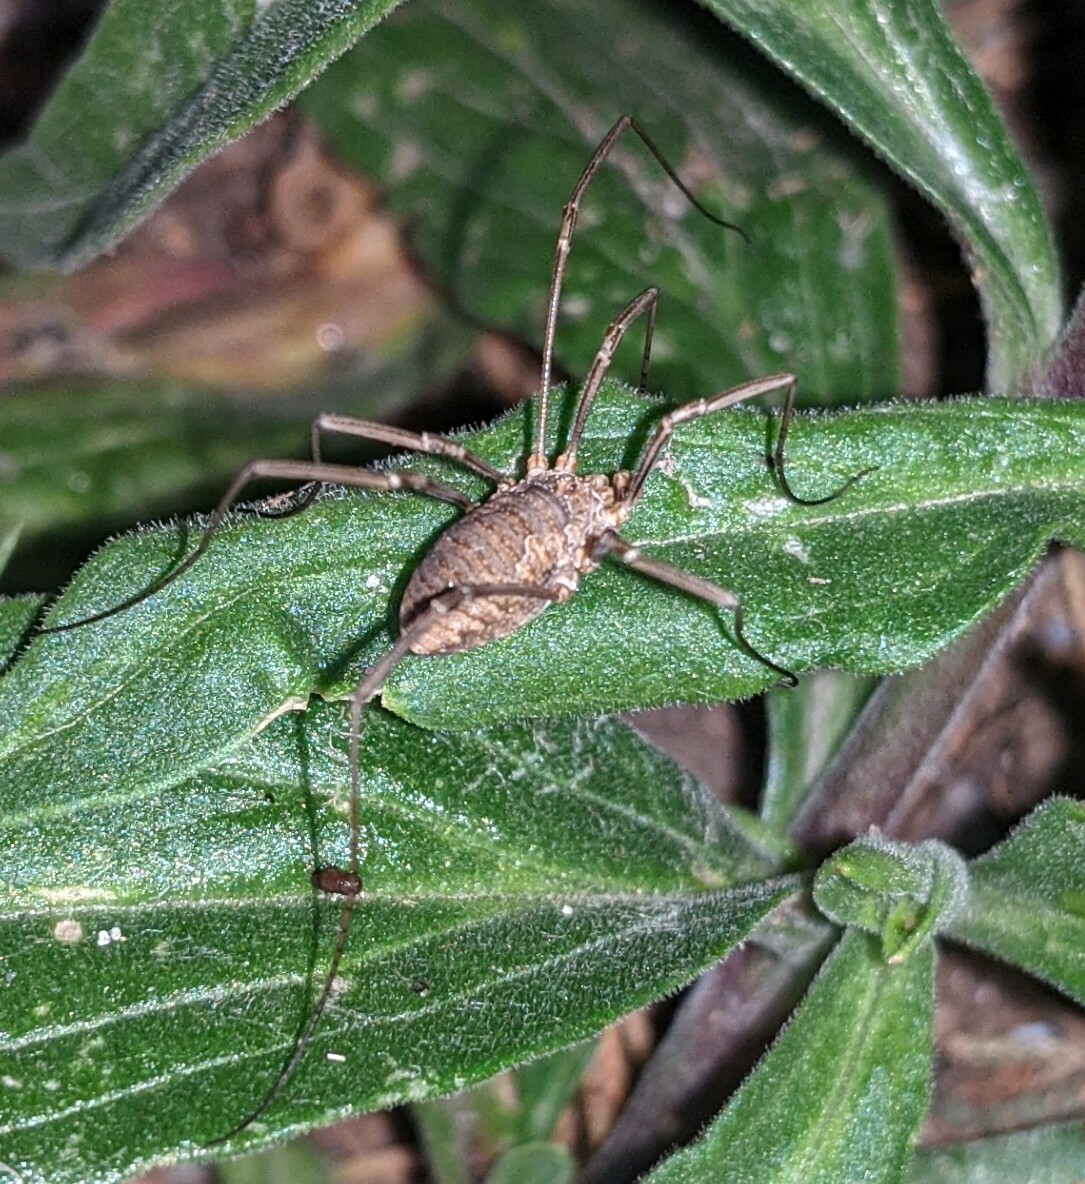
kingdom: Animalia
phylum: Arthropoda
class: Arachnida
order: Opiliones
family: Phalangiidae
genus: Phalangium
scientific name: Phalangium opilio
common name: Daddy longleg
